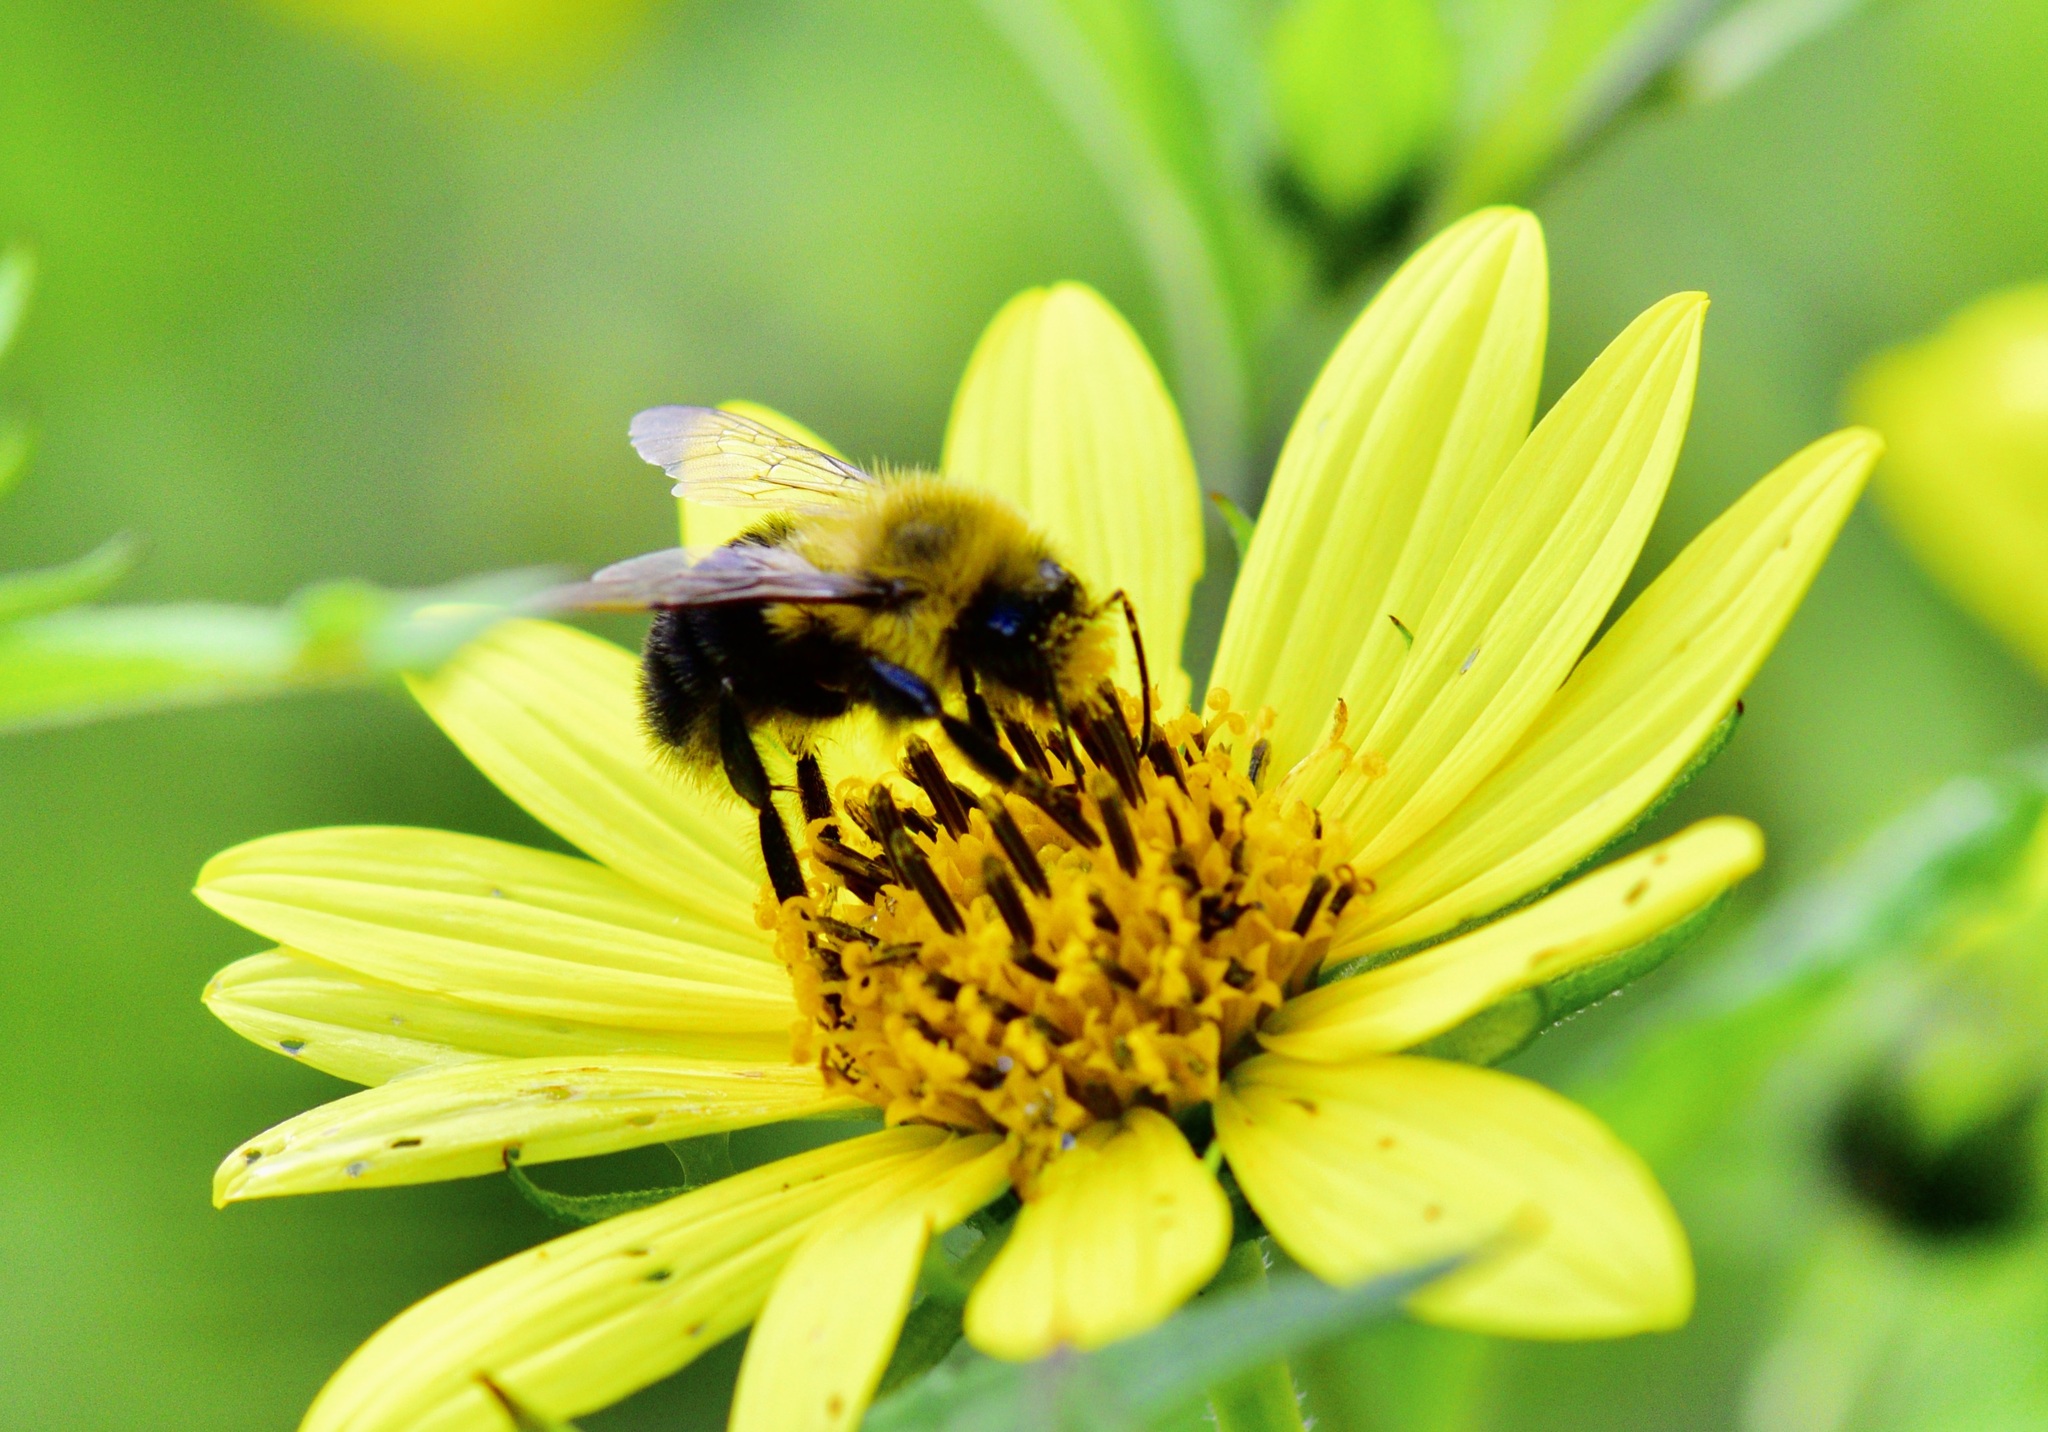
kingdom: Animalia
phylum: Arthropoda
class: Insecta
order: Hymenoptera
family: Apidae
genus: Bombus
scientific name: Bombus impatiens
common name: Common eastern bumble bee
